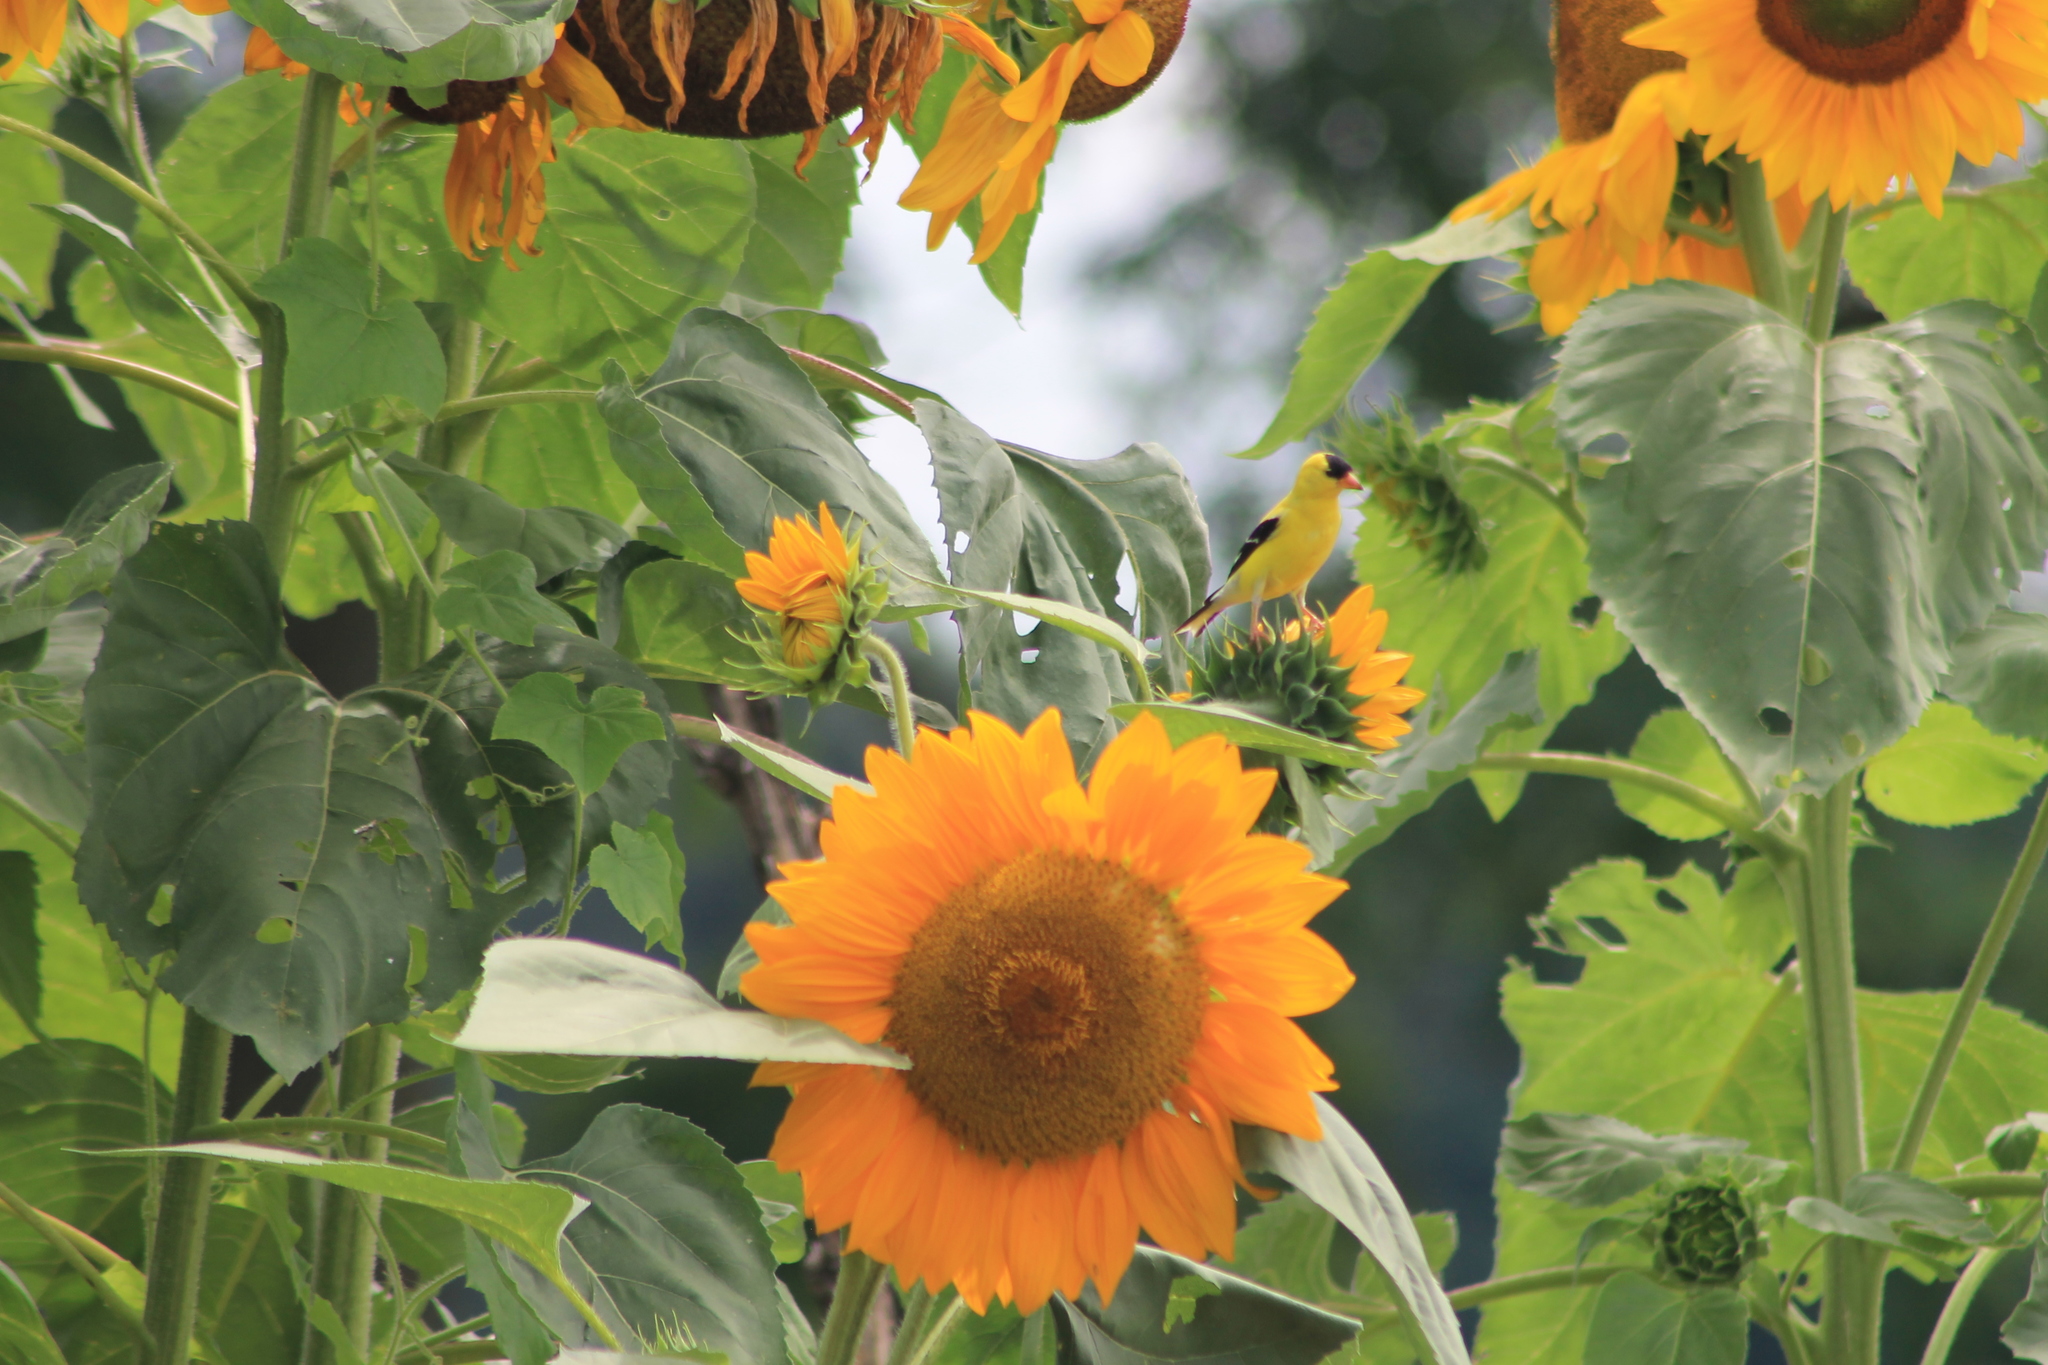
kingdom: Animalia
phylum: Chordata
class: Aves
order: Passeriformes
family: Fringillidae
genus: Spinus
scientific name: Spinus tristis
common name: American goldfinch
